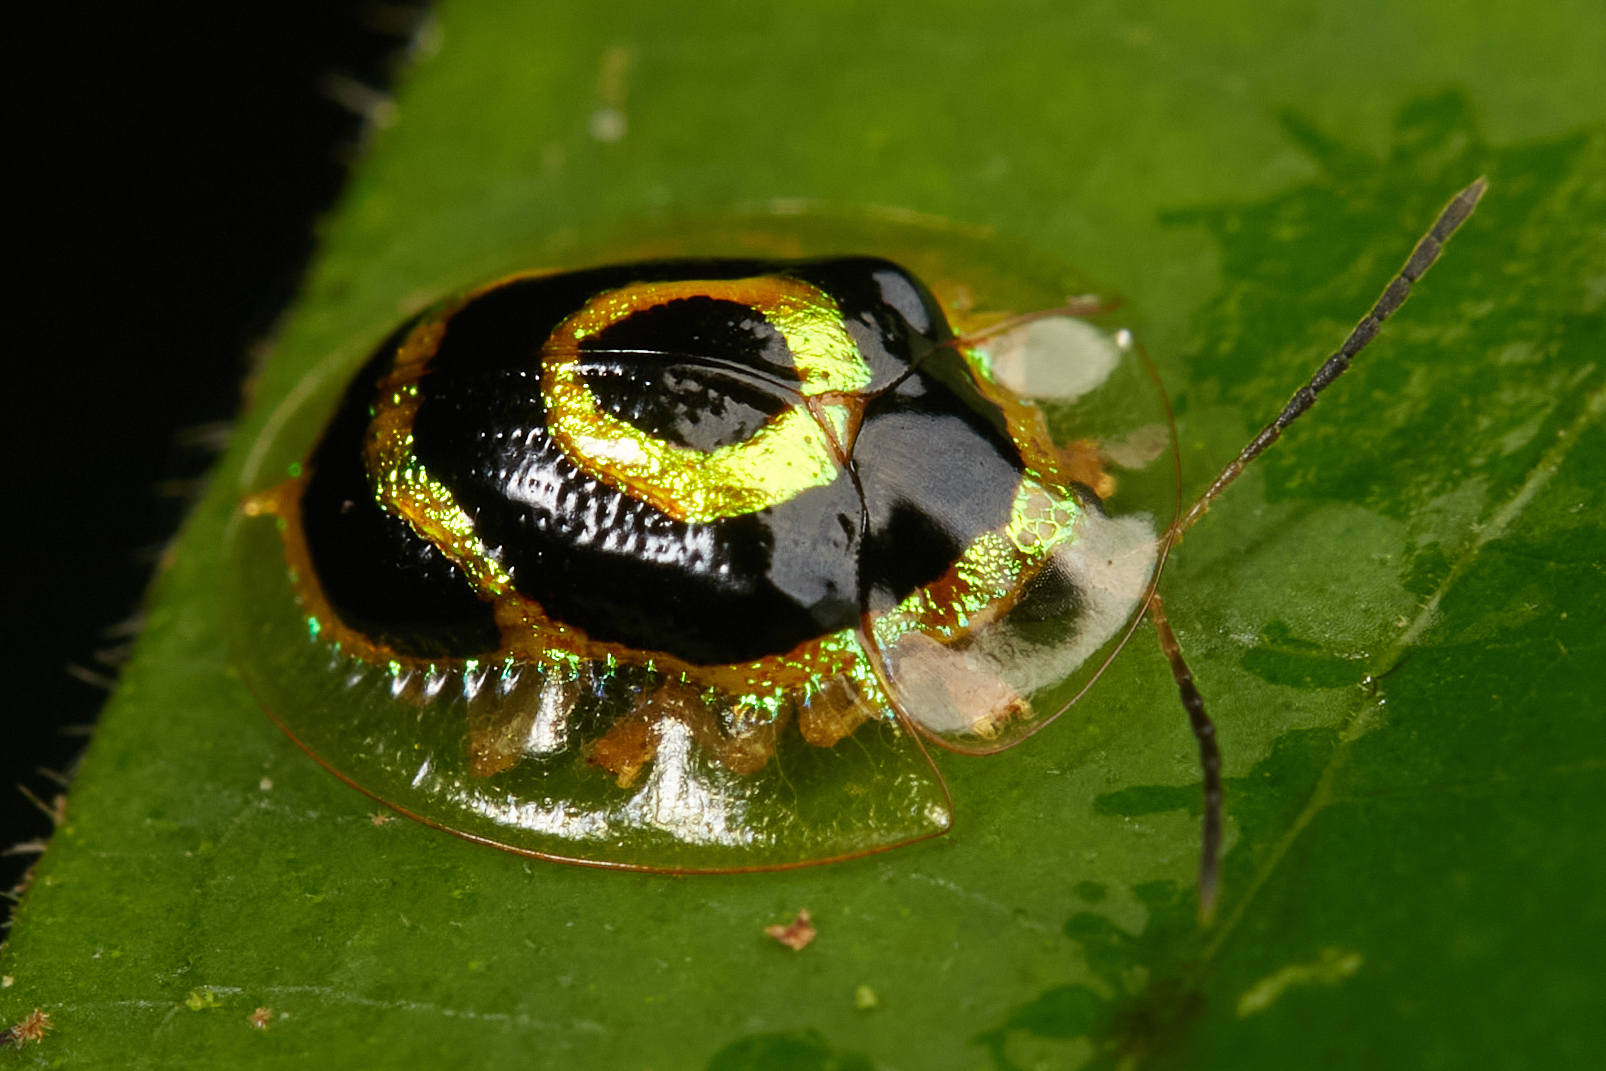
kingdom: Animalia
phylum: Arthropoda
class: Insecta
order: Coleoptera
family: Chrysomelidae
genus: Ischnocodia
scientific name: Ischnocodia annulus
